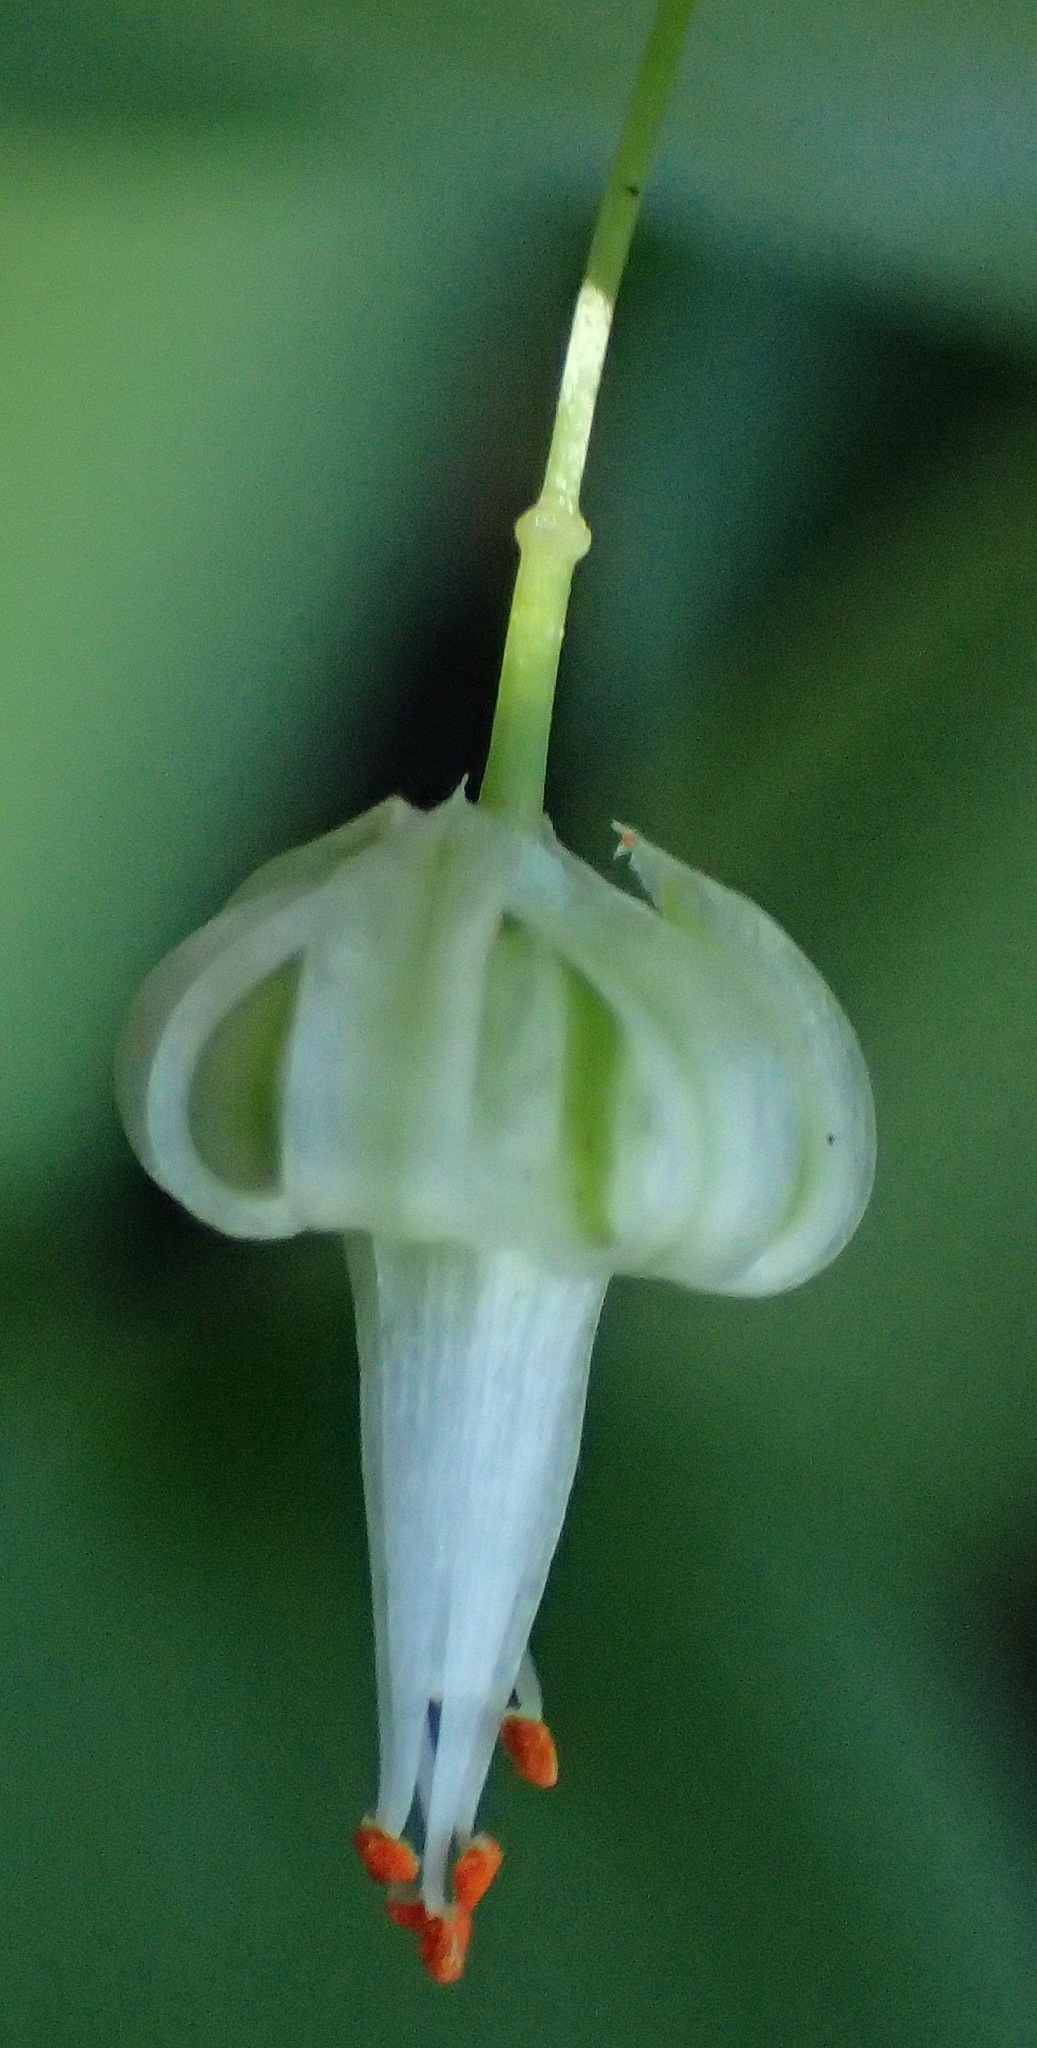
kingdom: Plantae
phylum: Tracheophyta
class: Liliopsida
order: Asparagales
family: Asparagaceae
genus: Asparagus
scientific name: Asparagus asparagoides
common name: African asparagus fern
